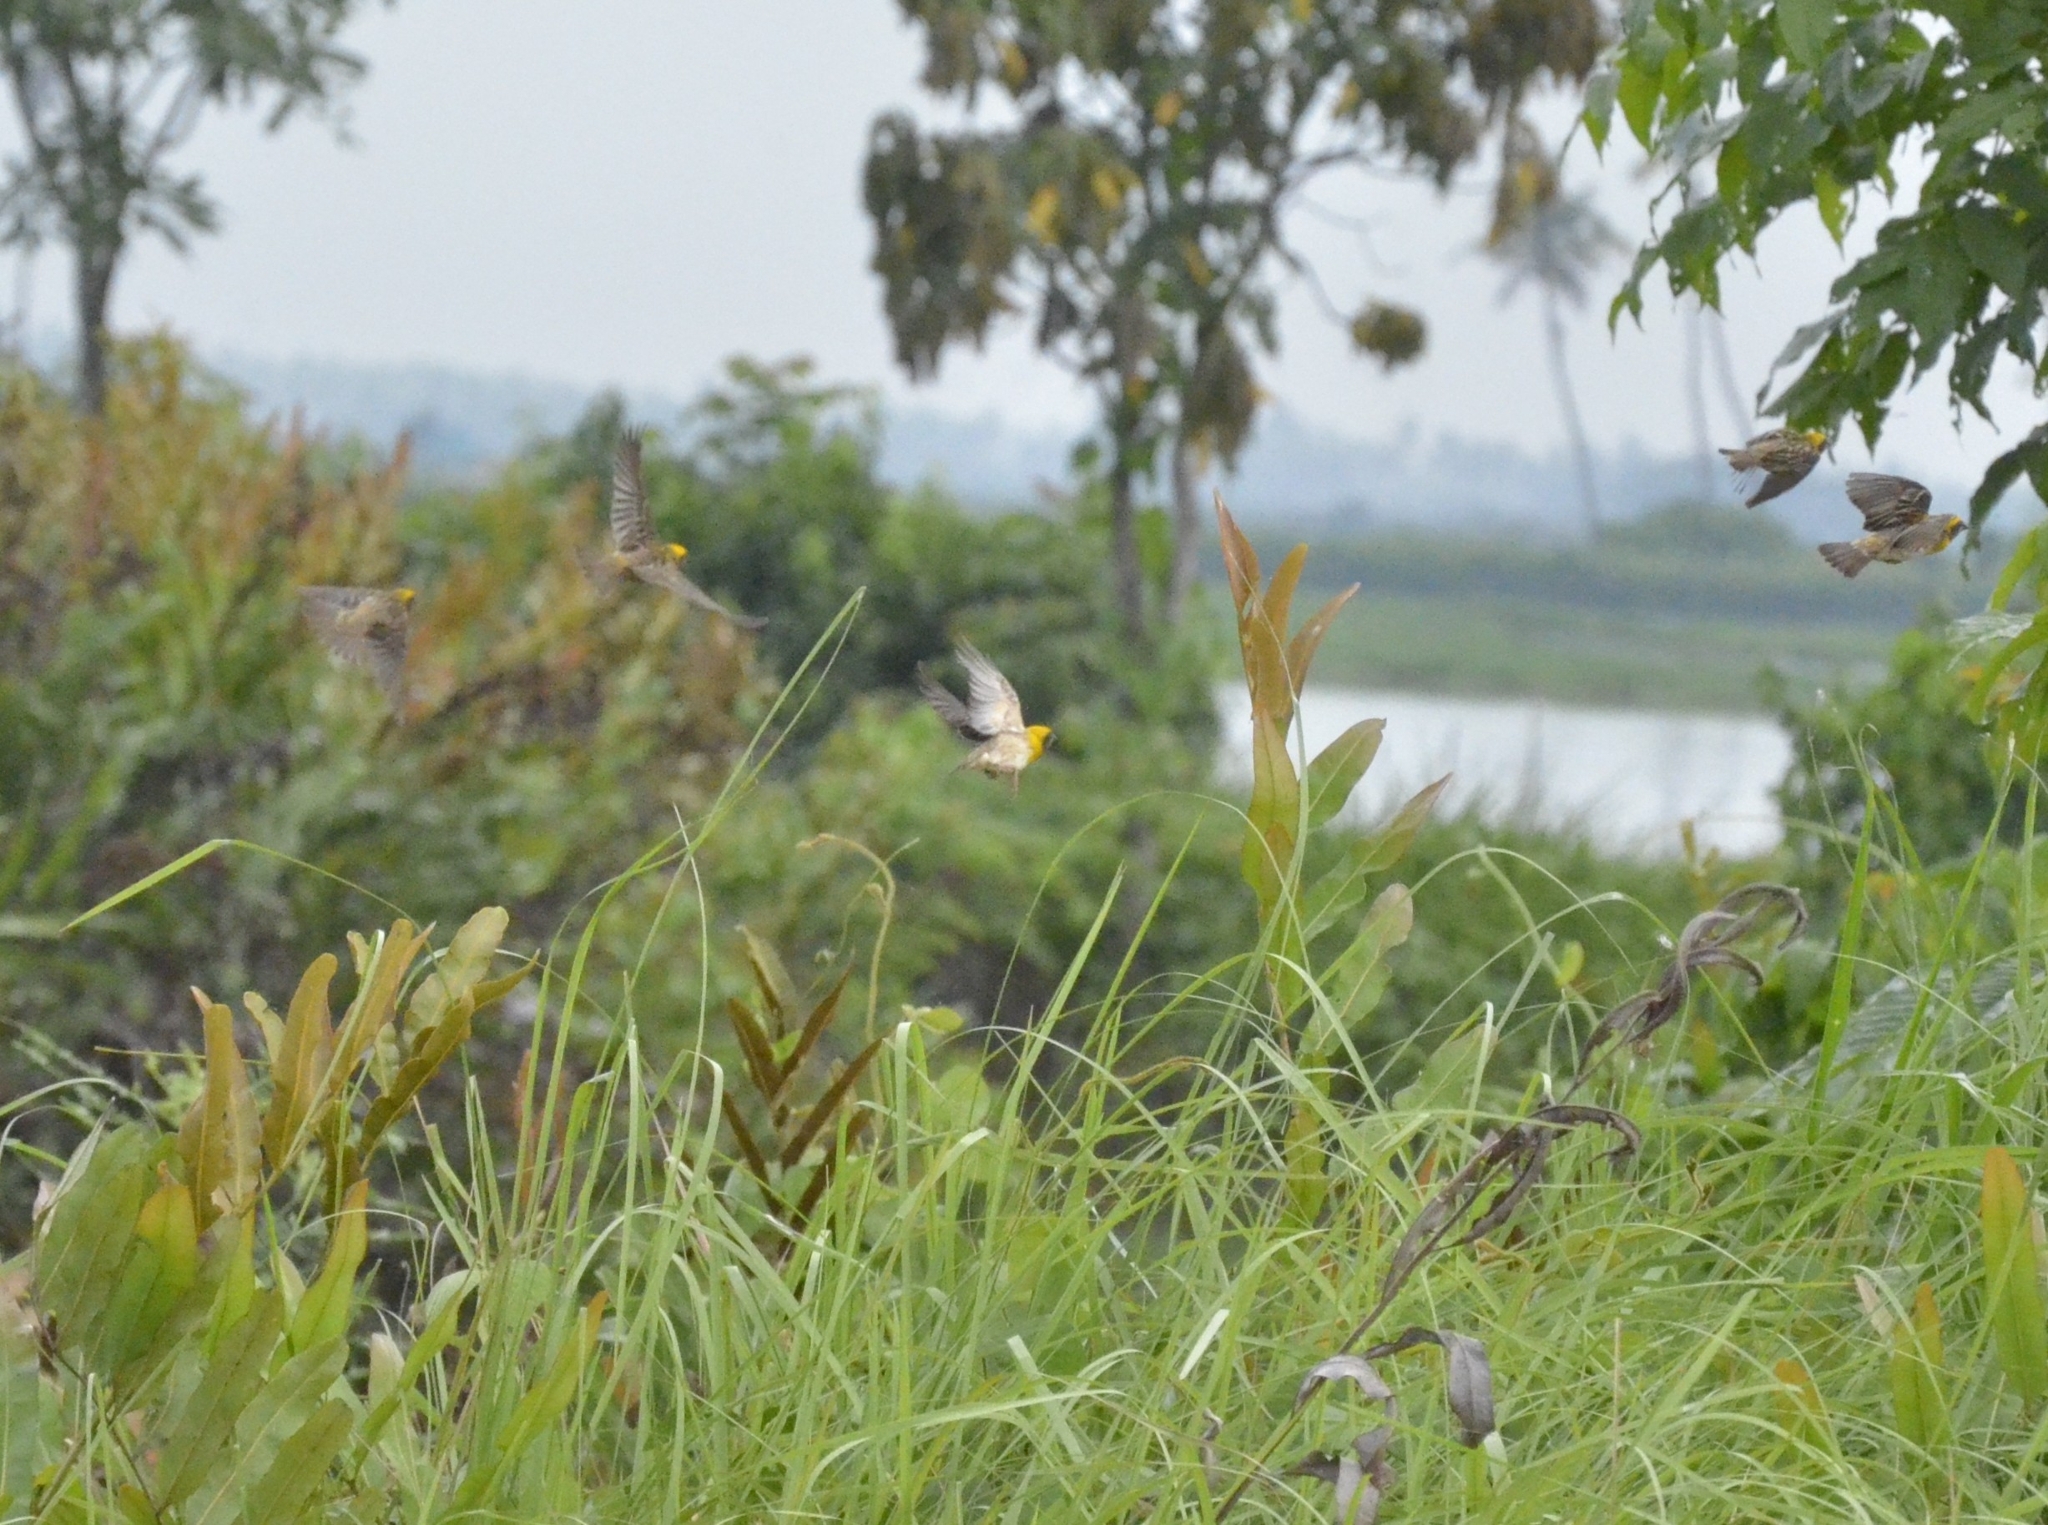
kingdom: Animalia
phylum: Chordata
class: Aves
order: Passeriformes
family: Ploceidae
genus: Ploceus
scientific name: Ploceus philippinus
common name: Baya weaver
